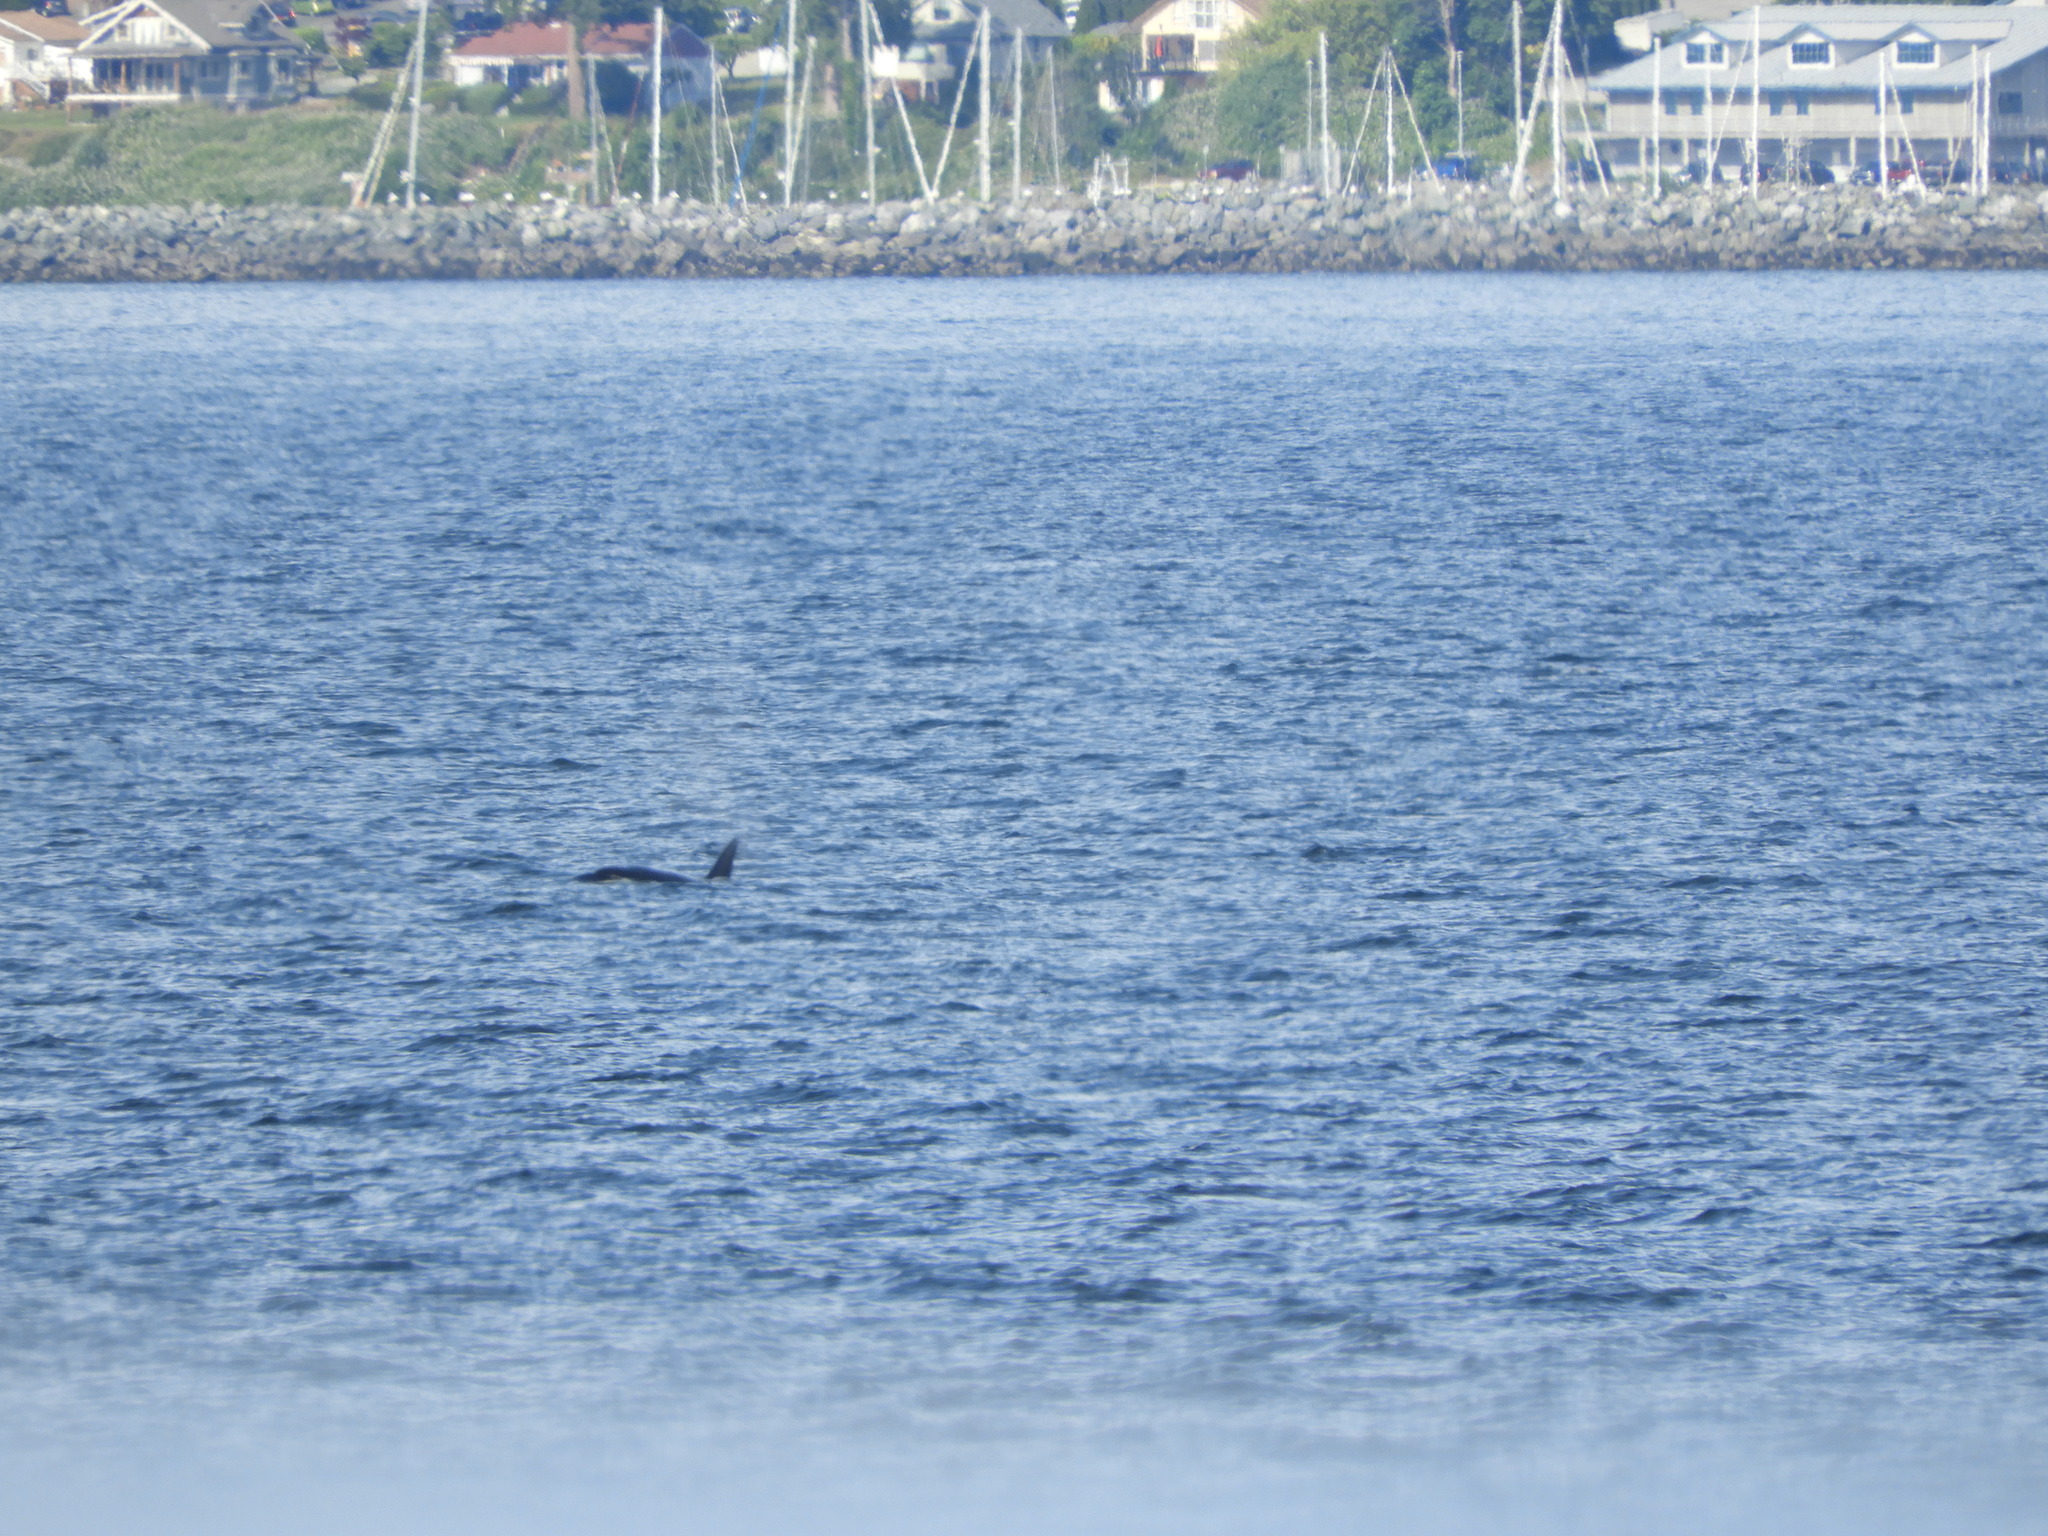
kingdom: Animalia
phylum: Chordata
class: Mammalia
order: Cetacea
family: Delphinidae
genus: Orcinus
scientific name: Orcinus orca
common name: Killer whale
